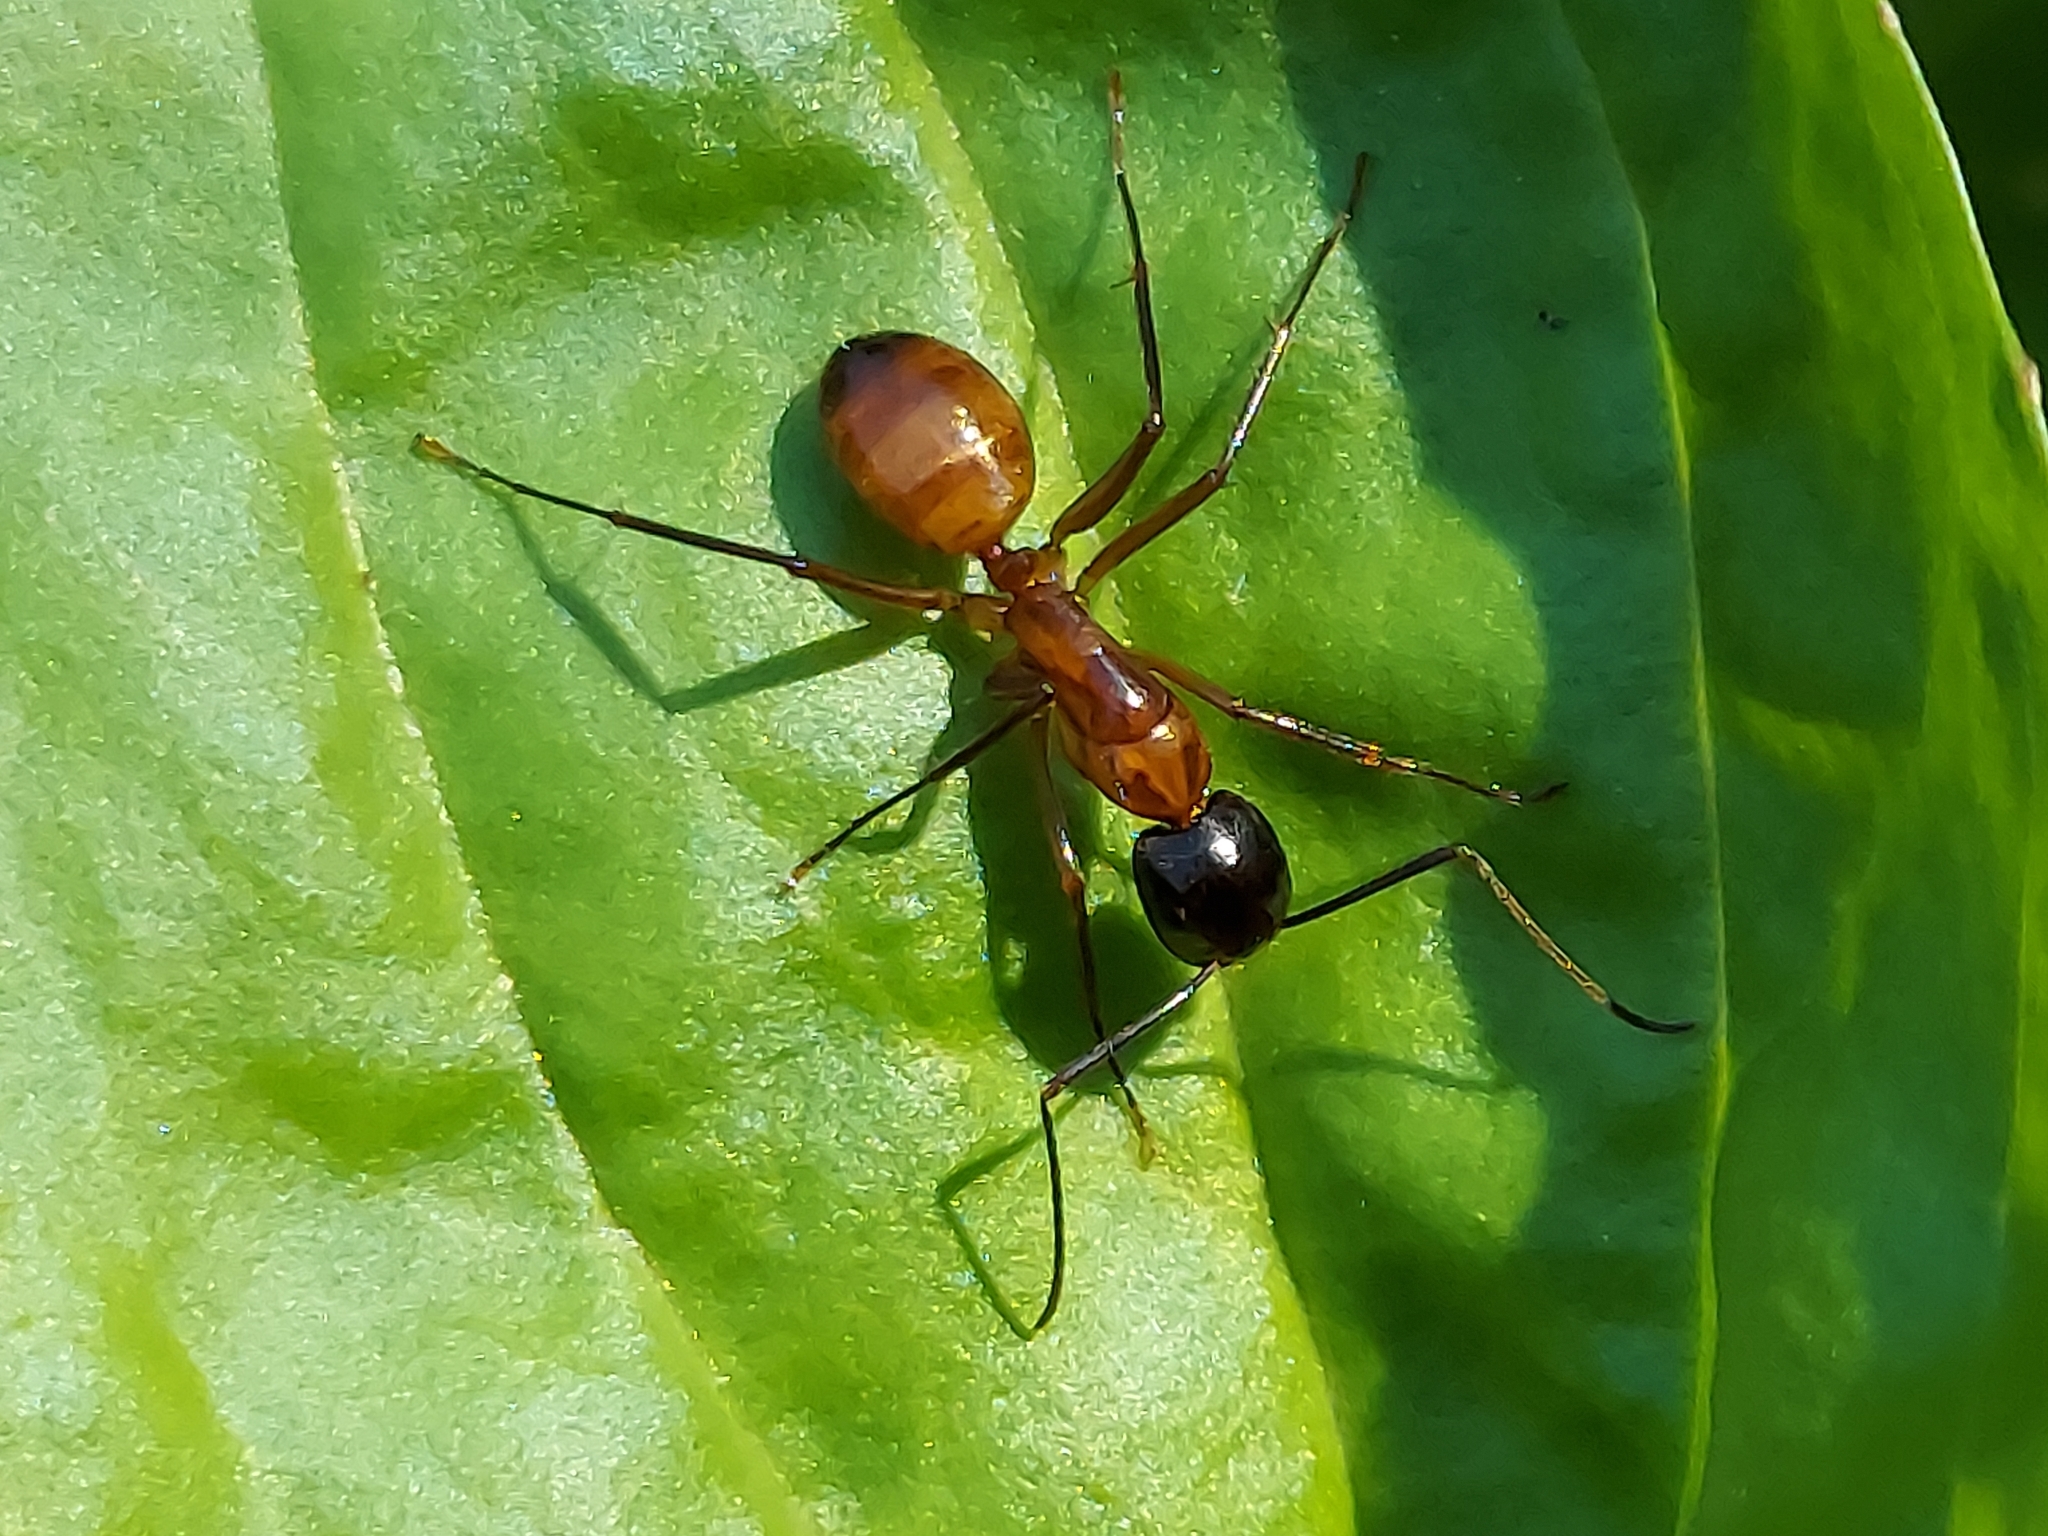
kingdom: Animalia
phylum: Arthropoda
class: Insecta
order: Hymenoptera
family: Formicidae
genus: Camponotus
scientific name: Camponotus americanus
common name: American carpenter ant
